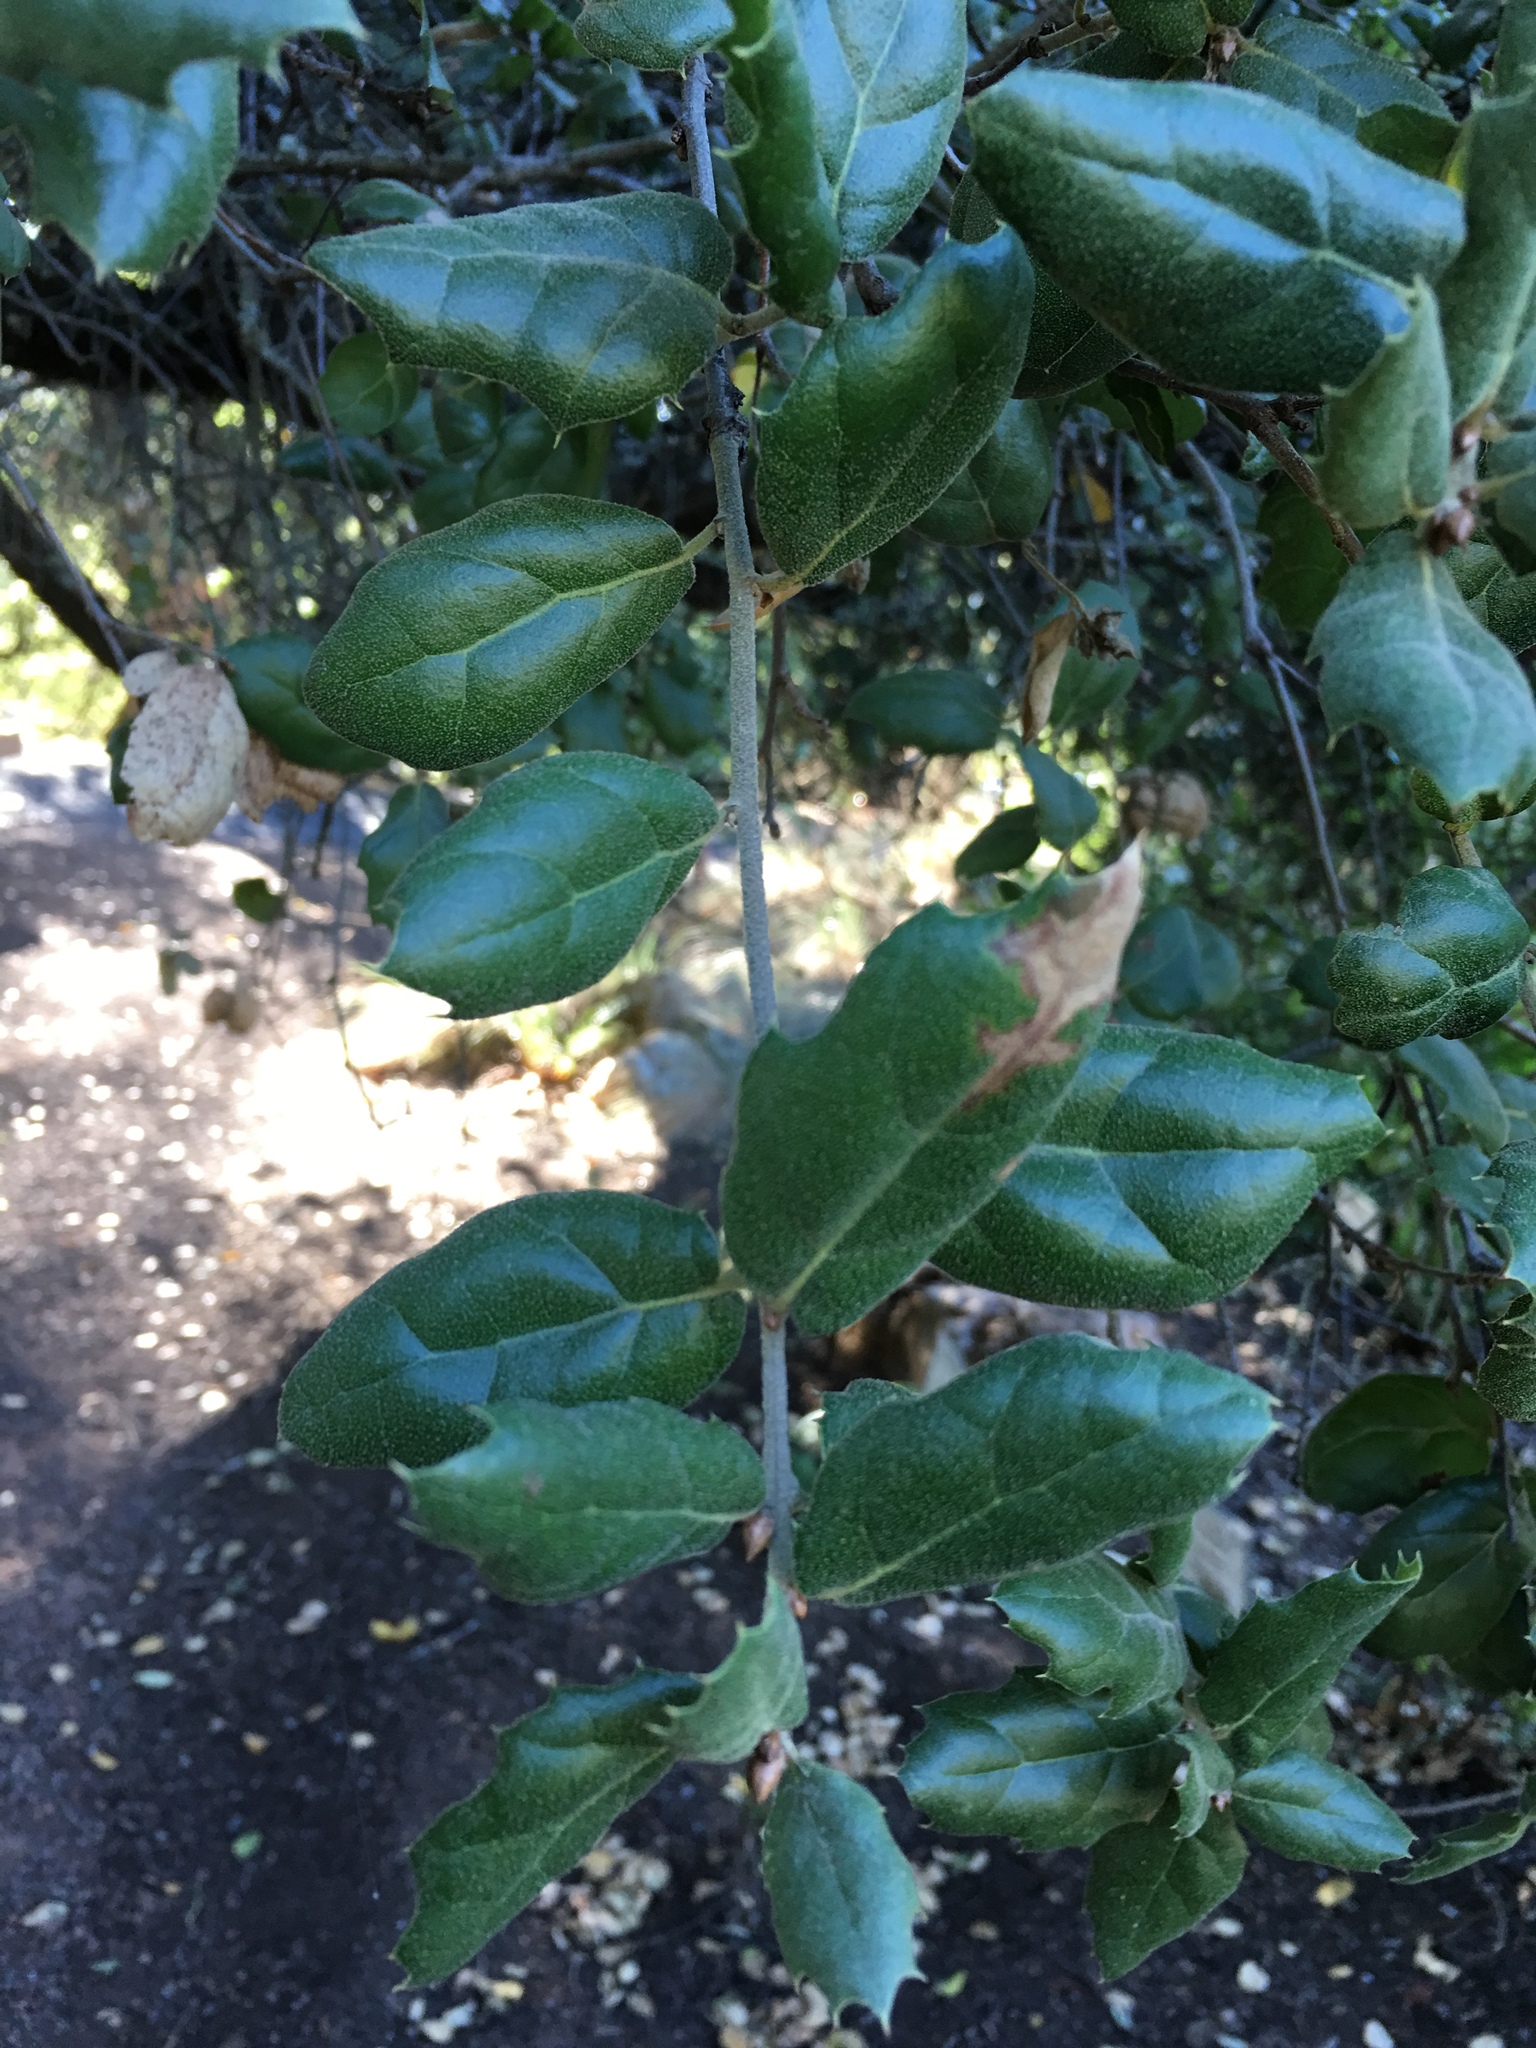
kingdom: Plantae
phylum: Tracheophyta
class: Magnoliopsida
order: Fagales
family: Fagaceae
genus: Quercus
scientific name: Quercus agrifolia
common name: California live oak
